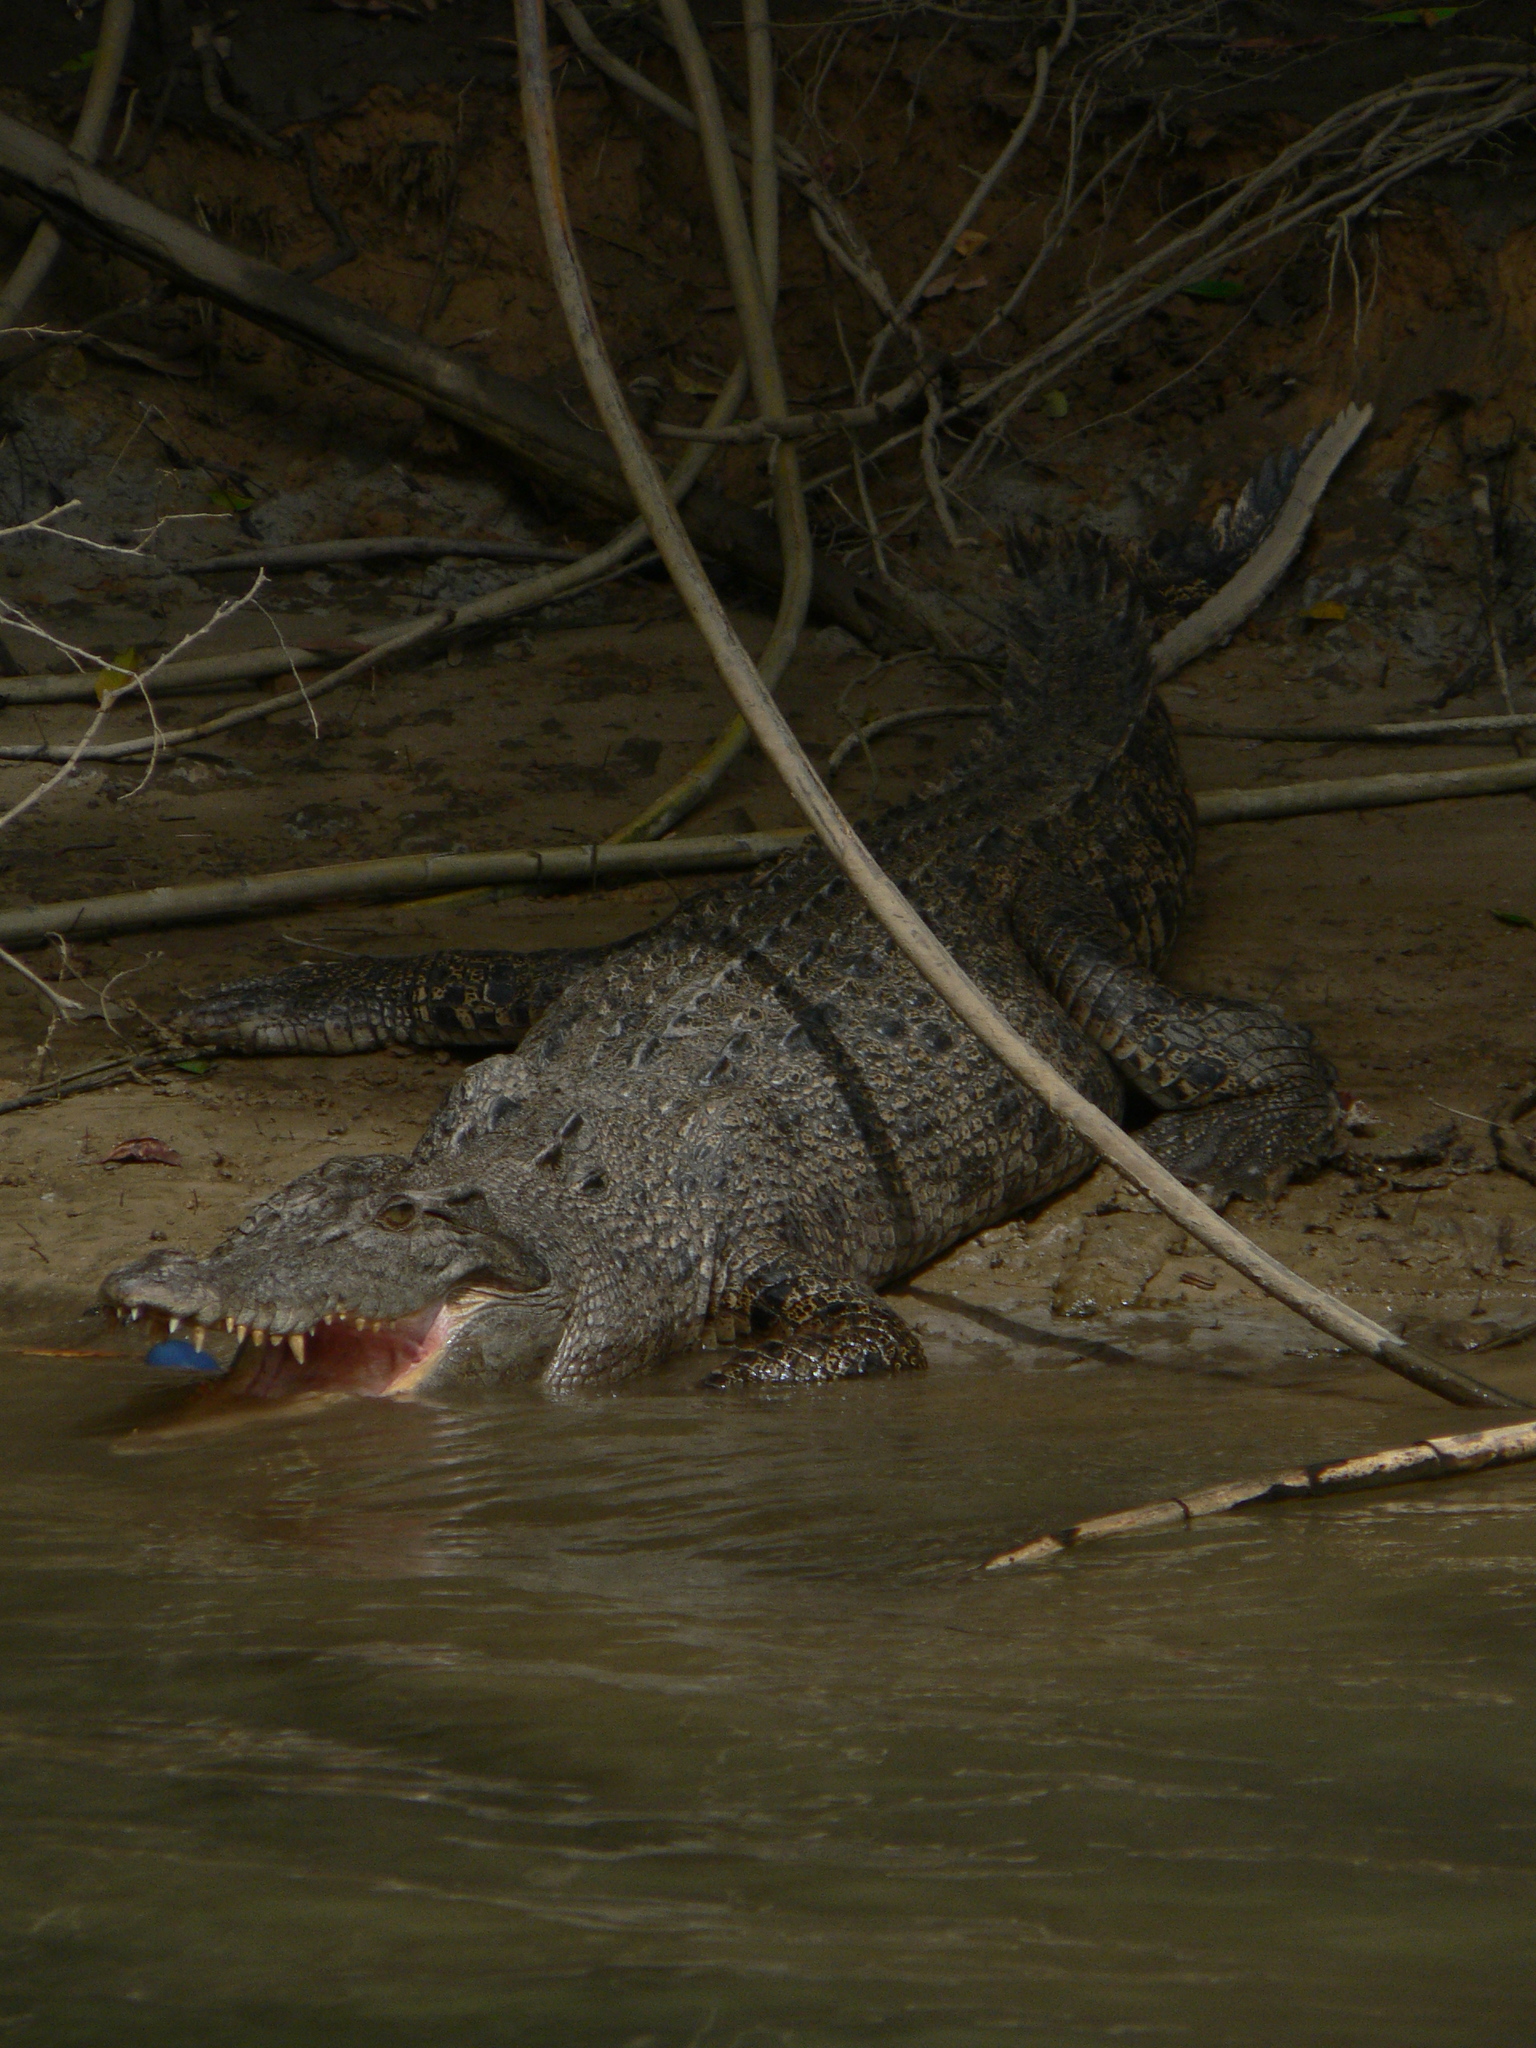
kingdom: Animalia
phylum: Chordata
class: Crocodylia
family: Crocodylidae
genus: Crocodylus
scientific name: Crocodylus porosus
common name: Saltwater crocodile
